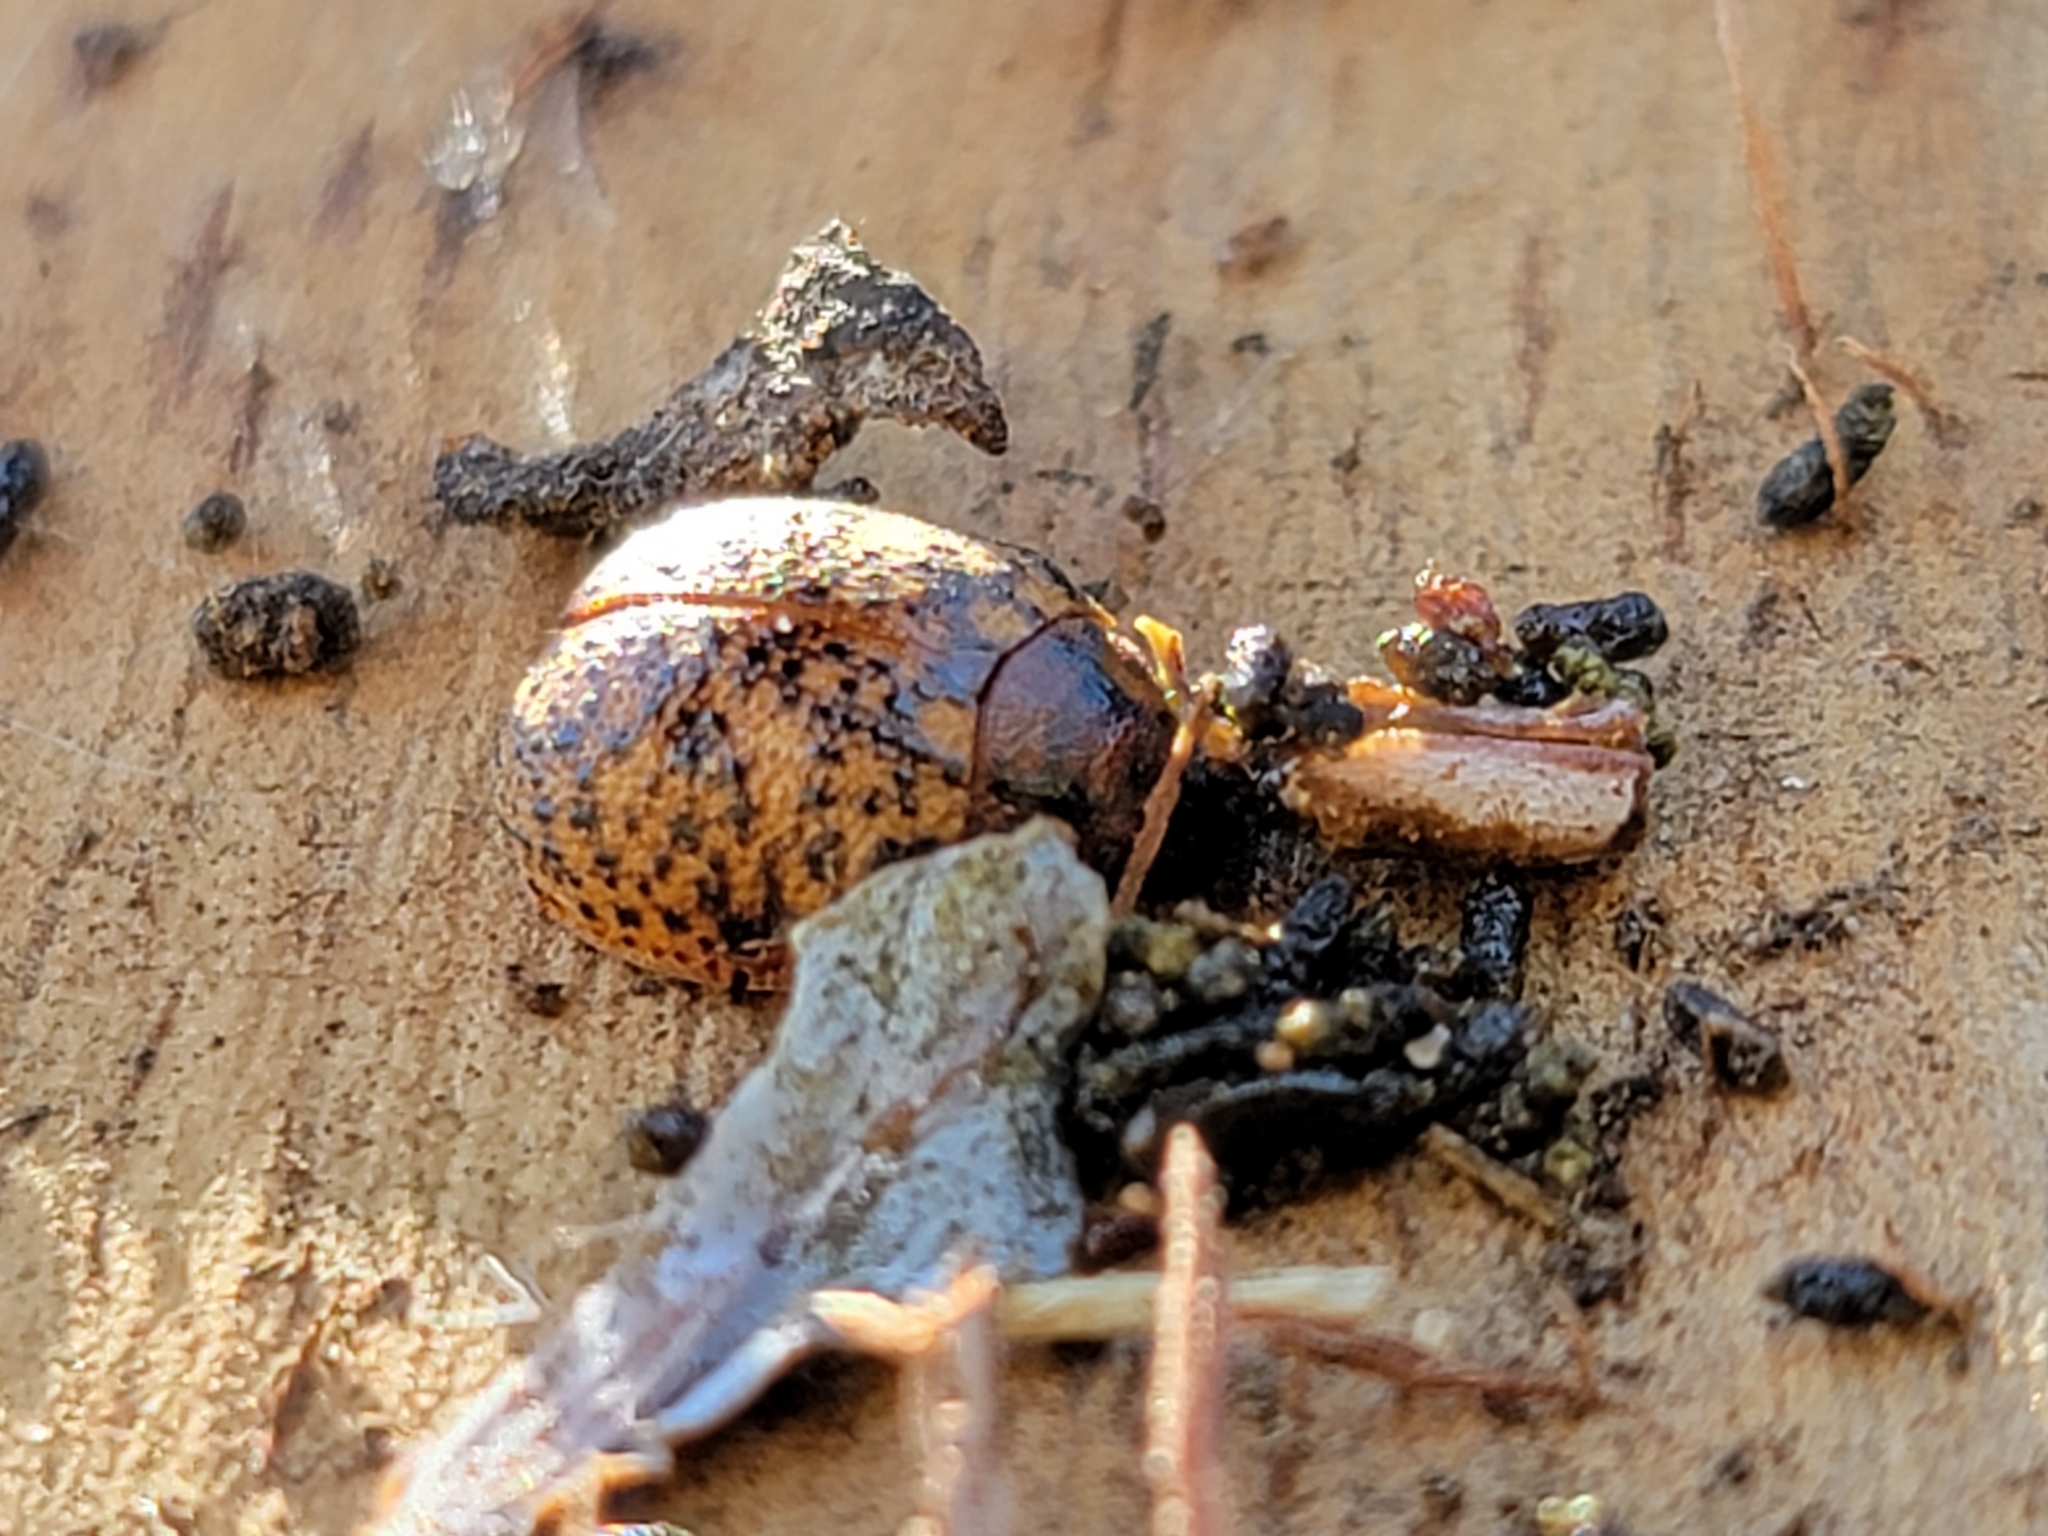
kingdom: Animalia
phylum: Arthropoda
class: Insecta
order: Coleoptera
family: Chrysomelidae
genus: Trachymela
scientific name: Trachymela sloanei
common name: Australian tortoise beetle
